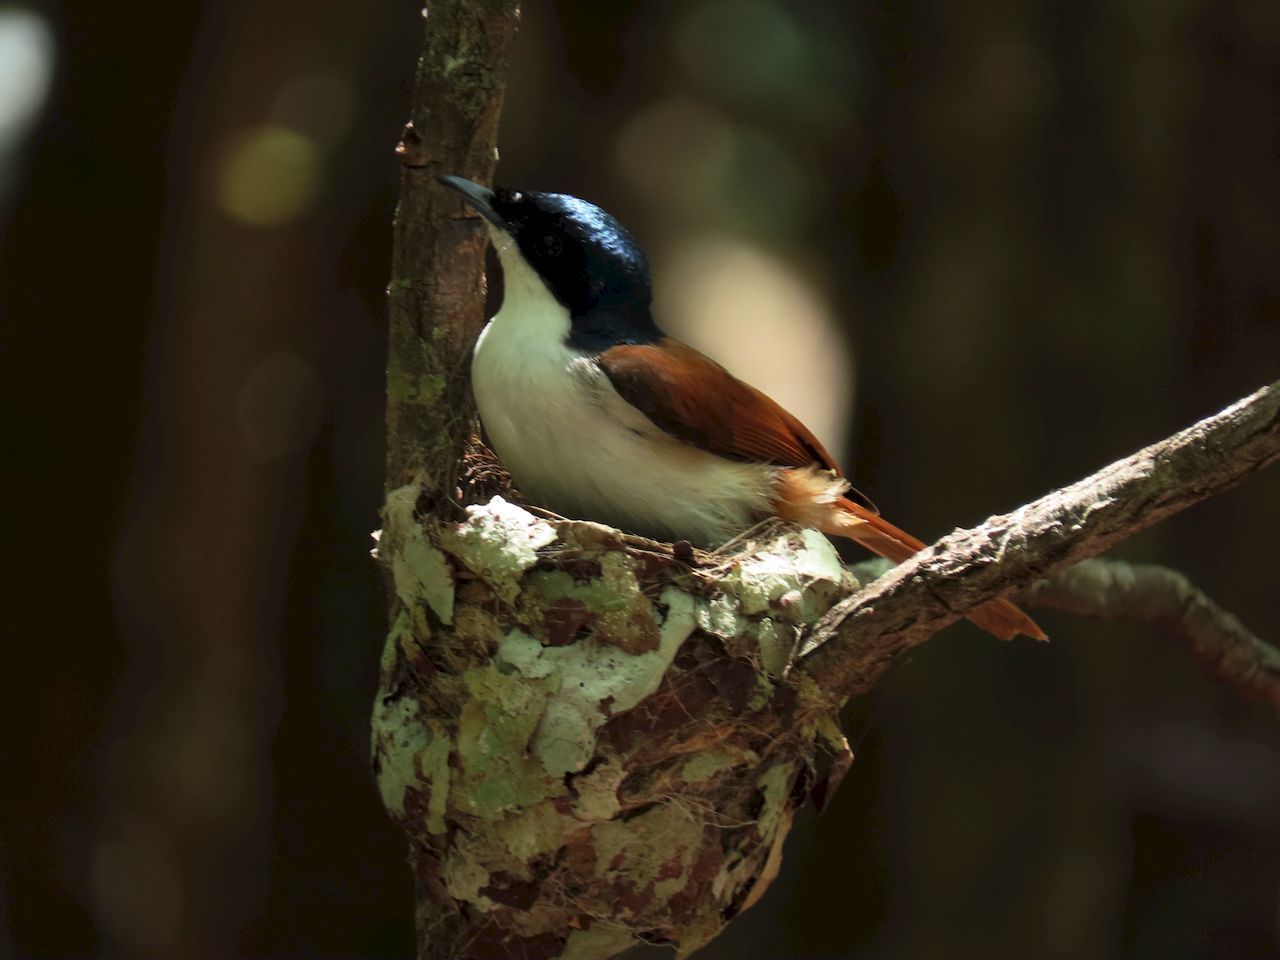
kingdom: Animalia
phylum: Chordata
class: Aves
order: Passeriformes
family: Monarchidae
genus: Myiagra
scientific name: Myiagra alecto
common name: Shining flycatcher
